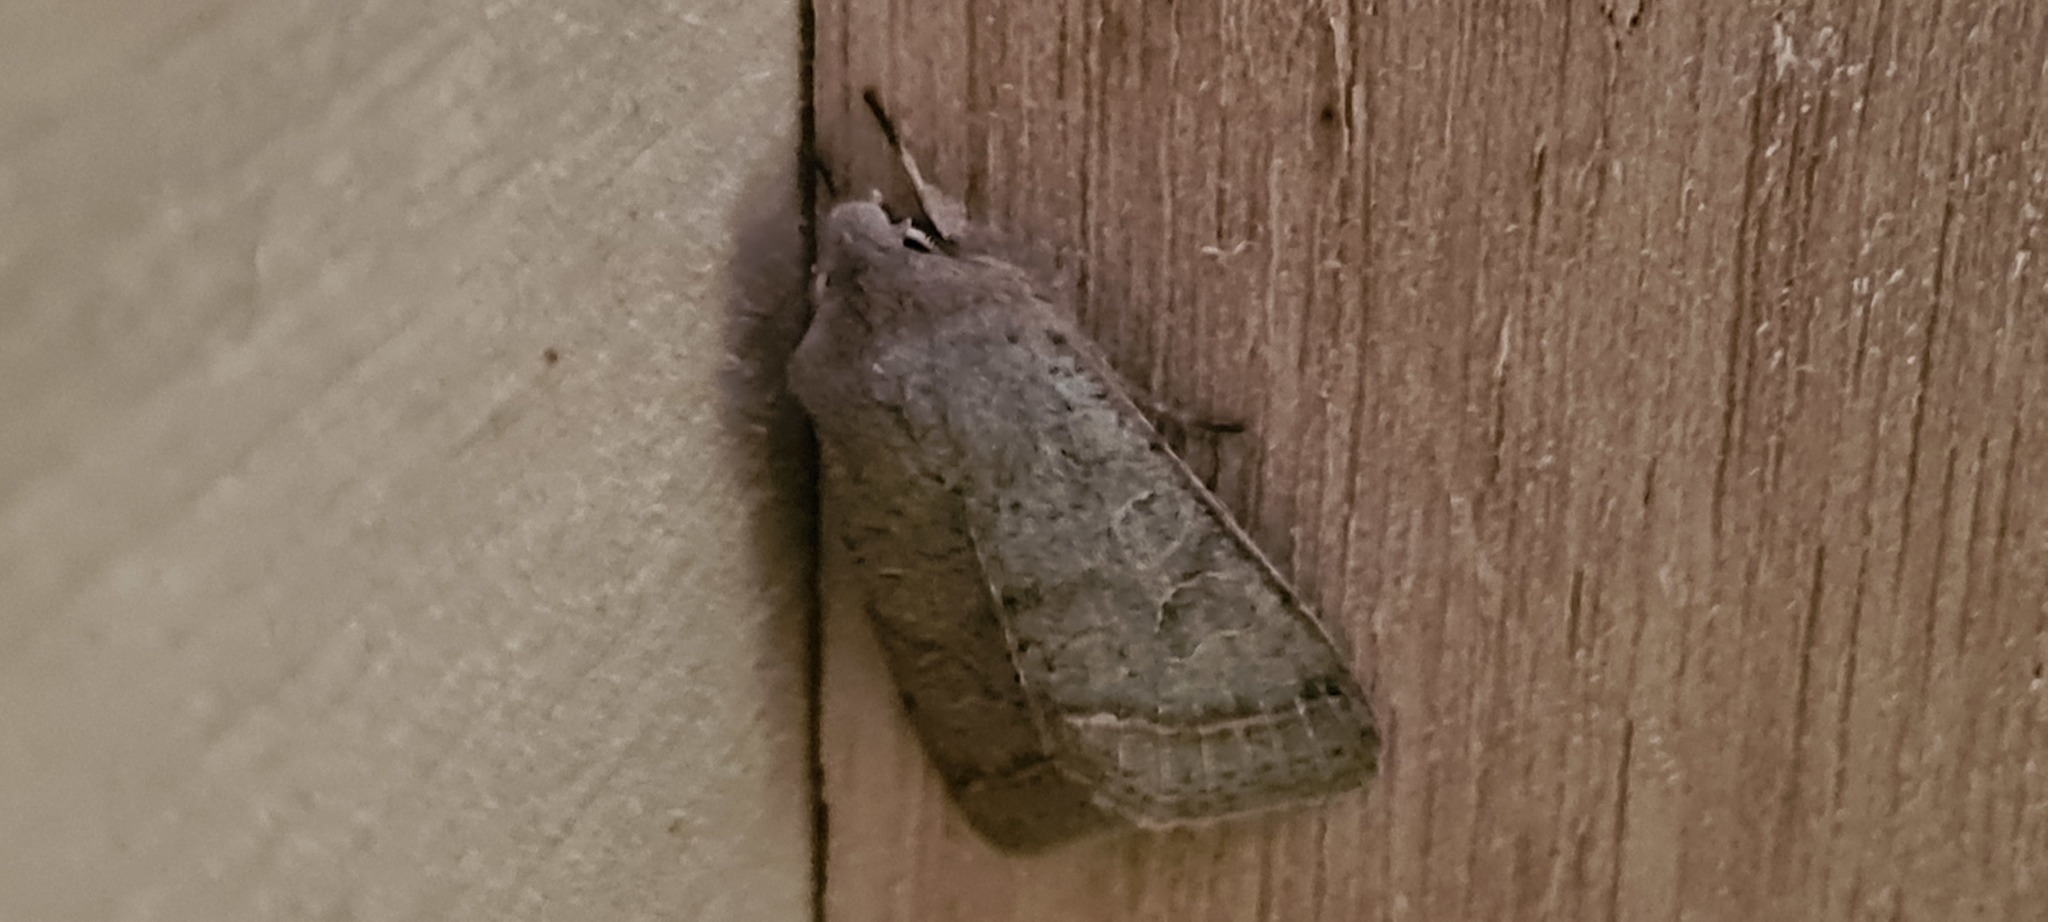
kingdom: Animalia
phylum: Arthropoda
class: Insecta
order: Lepidoptera
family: Noctuidae
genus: Orthosia
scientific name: Orthosia cerasi
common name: Common quaker
